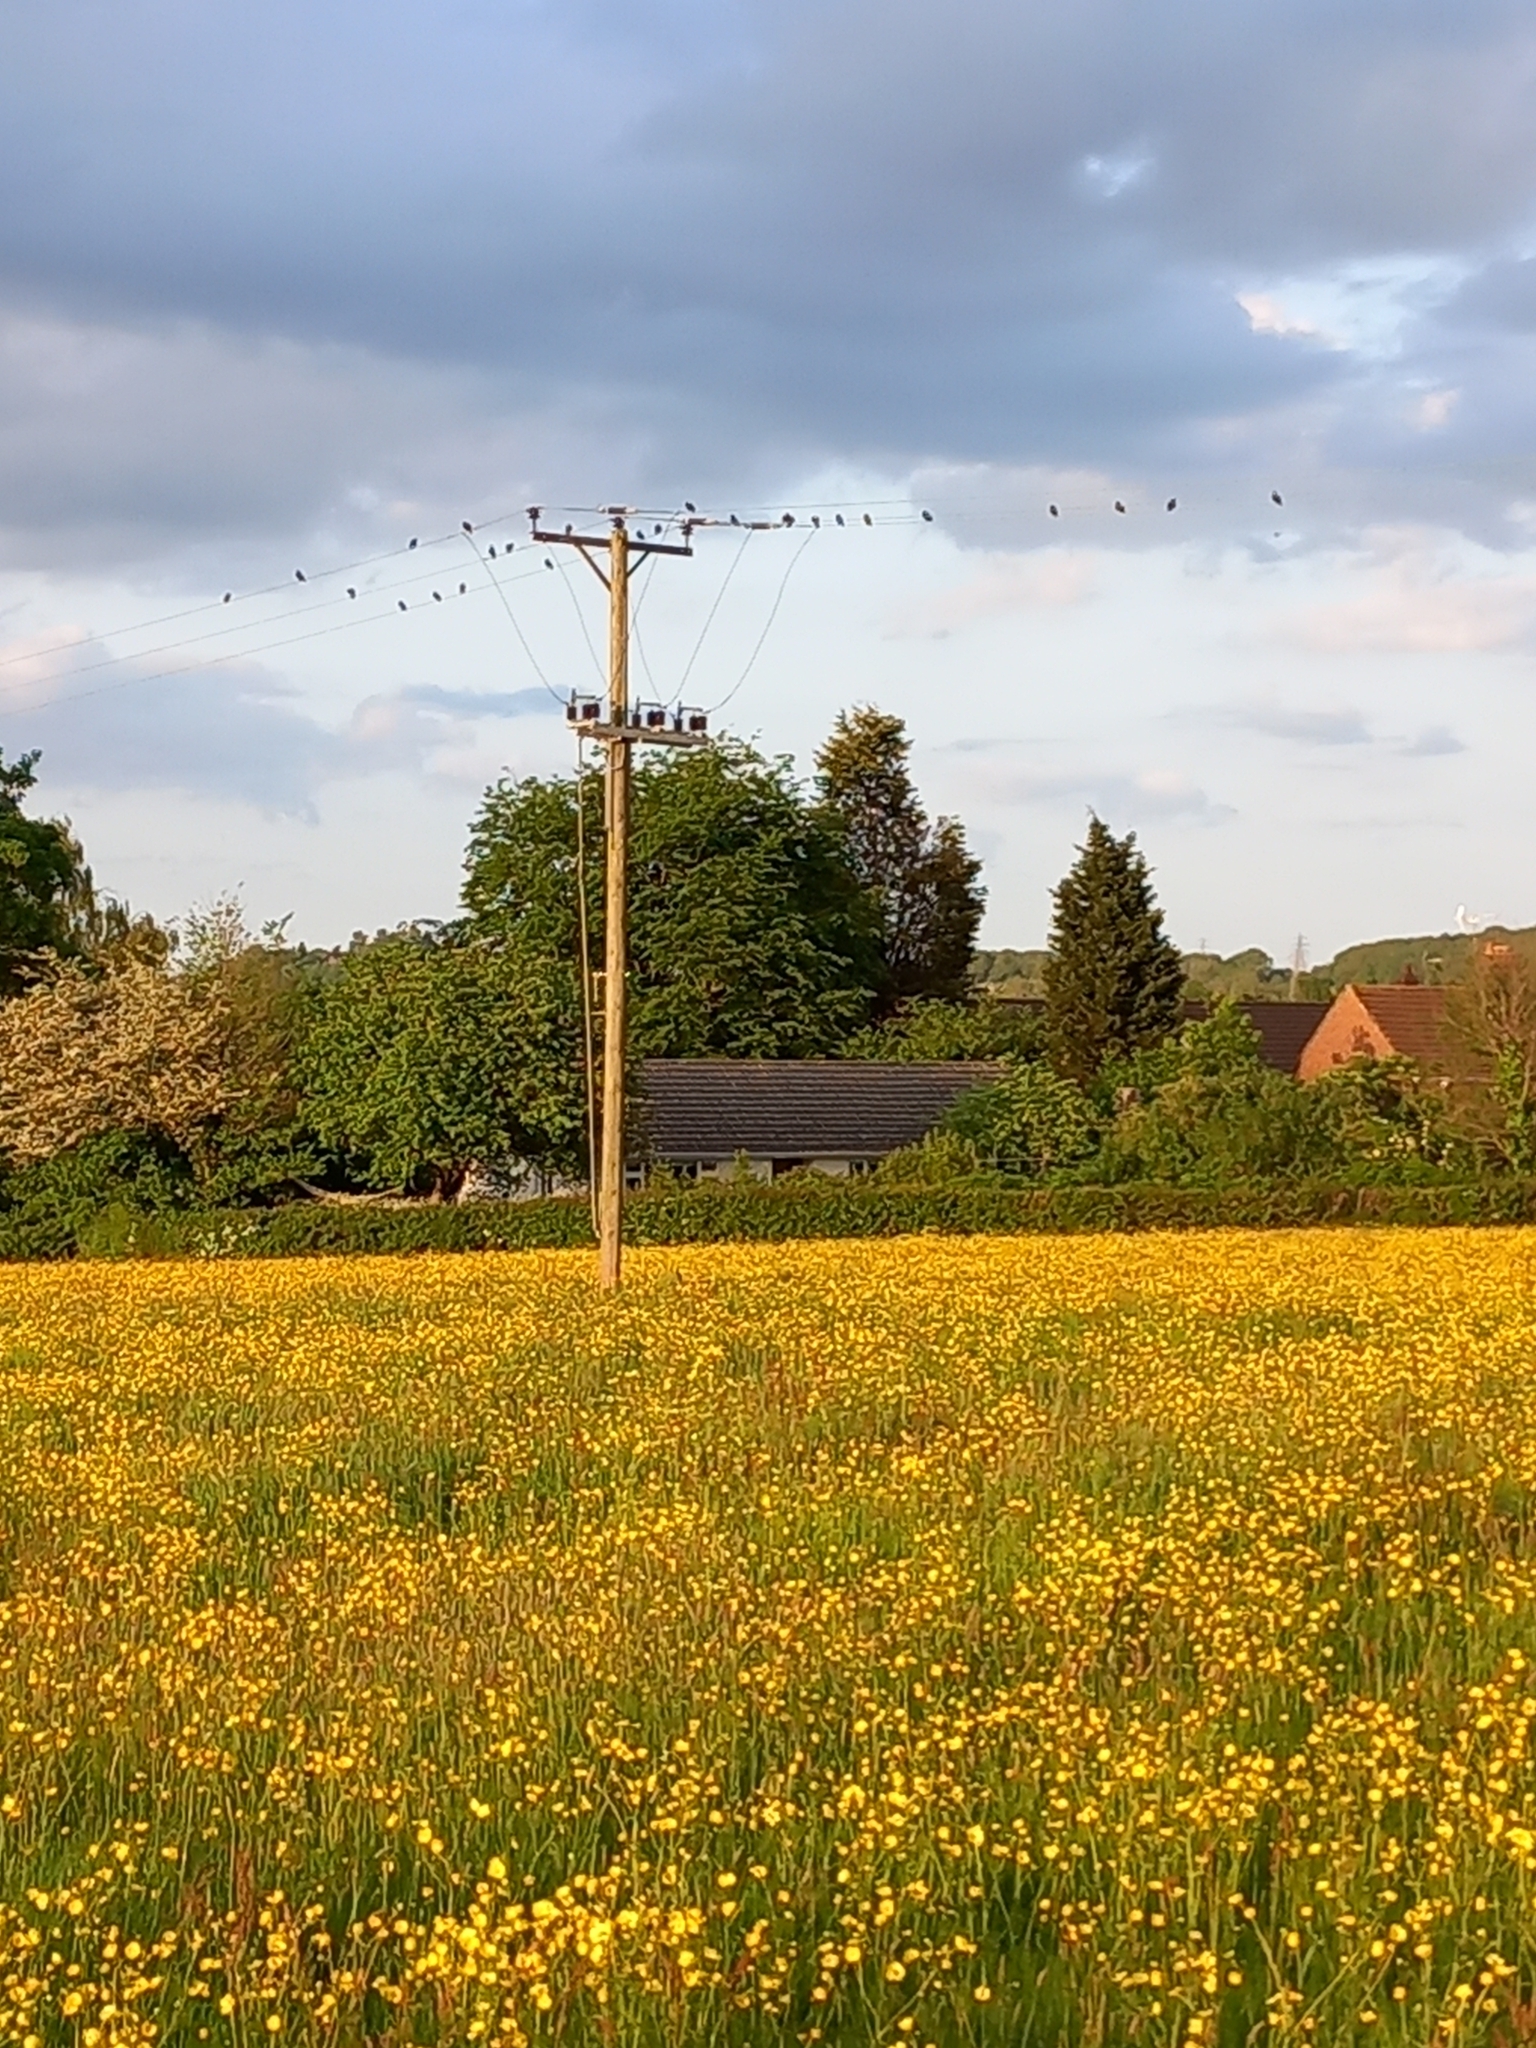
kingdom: Animalia
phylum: Chordata
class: Aves
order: Passeriformes
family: Sturnidae
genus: Sturnus
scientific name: Sturnus vulgaris
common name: Common starling
